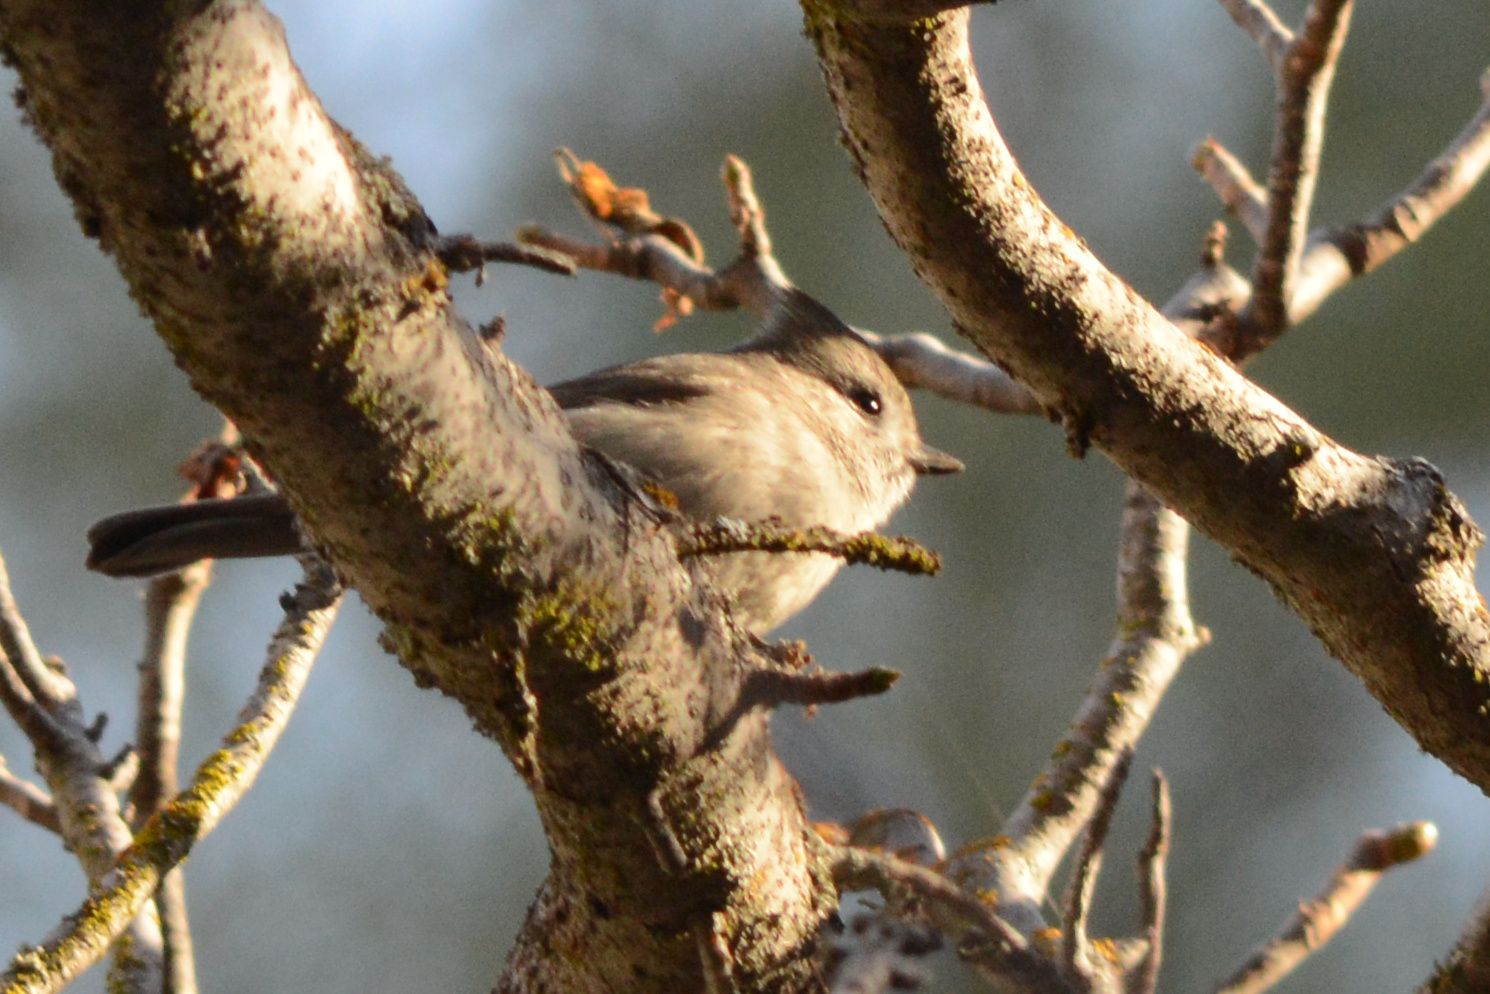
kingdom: Animalia
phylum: Chordata
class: Aves
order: Passeriformes
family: Paridae
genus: Baeolophus
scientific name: Baeolophus inornatus
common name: Oak titmouse
